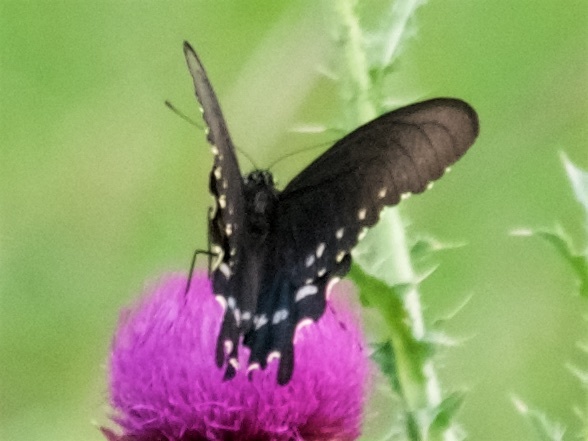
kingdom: Animalia
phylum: Arthropoda
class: Insecta
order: Lepidoptera
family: Papilionidae
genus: Battus
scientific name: Battus philenor
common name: Pipevine swallowtail
